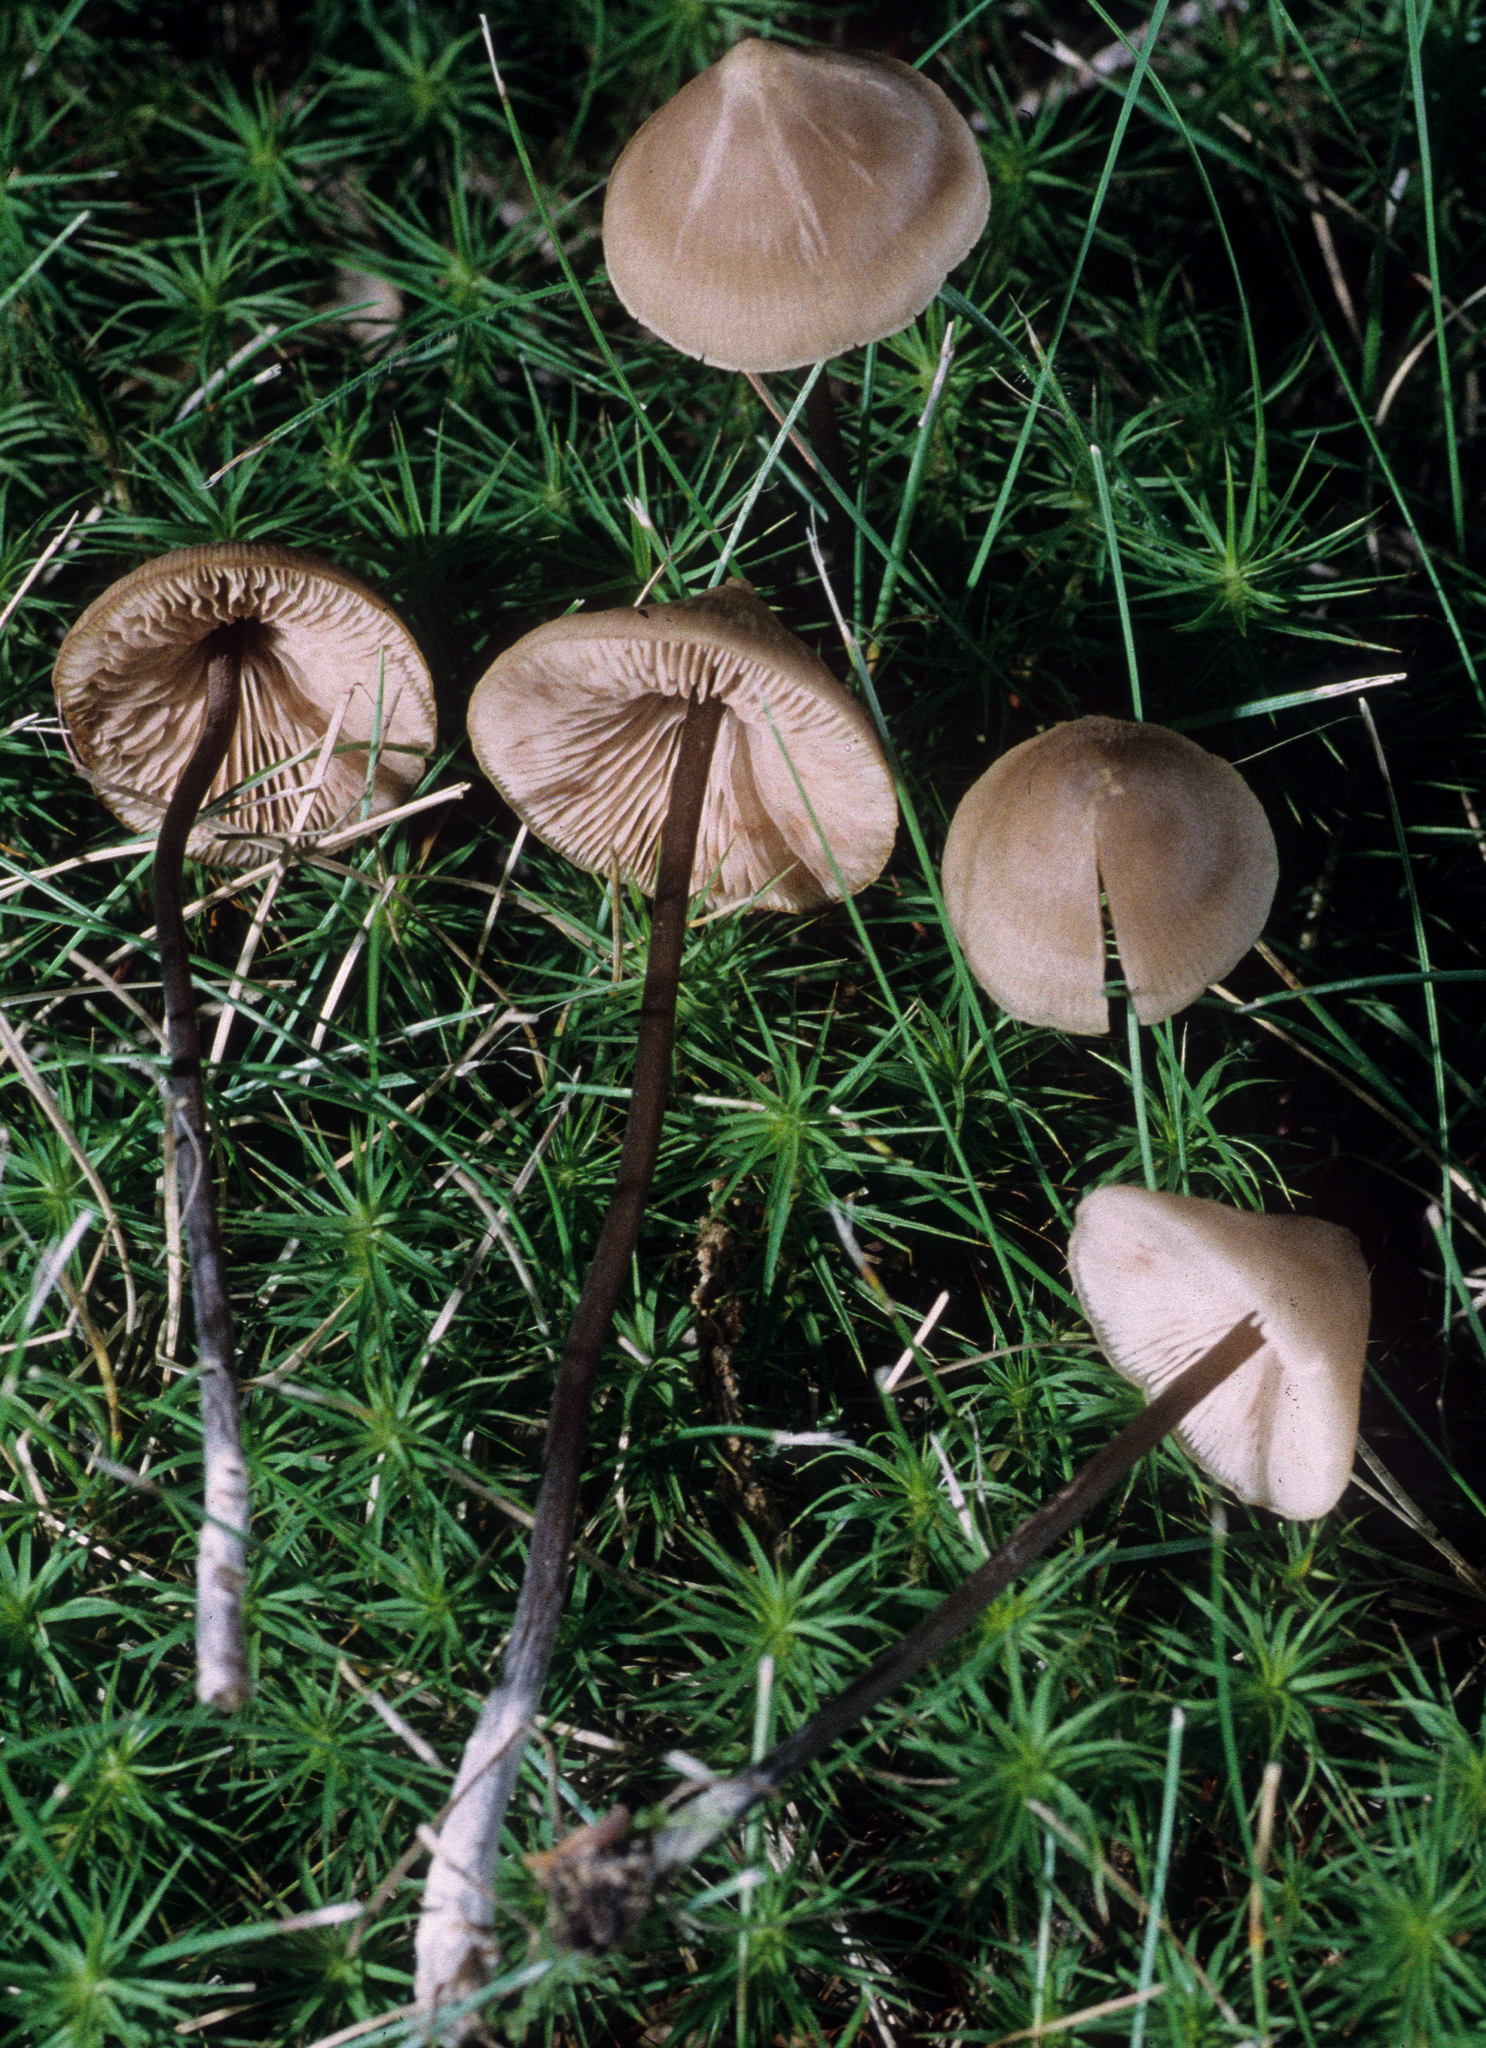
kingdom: Fungi
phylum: Basidiomycota
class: Agaricomycetes
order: Agaricales
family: Entolomataceae
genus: Entoloma
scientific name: Entoloma conicum
